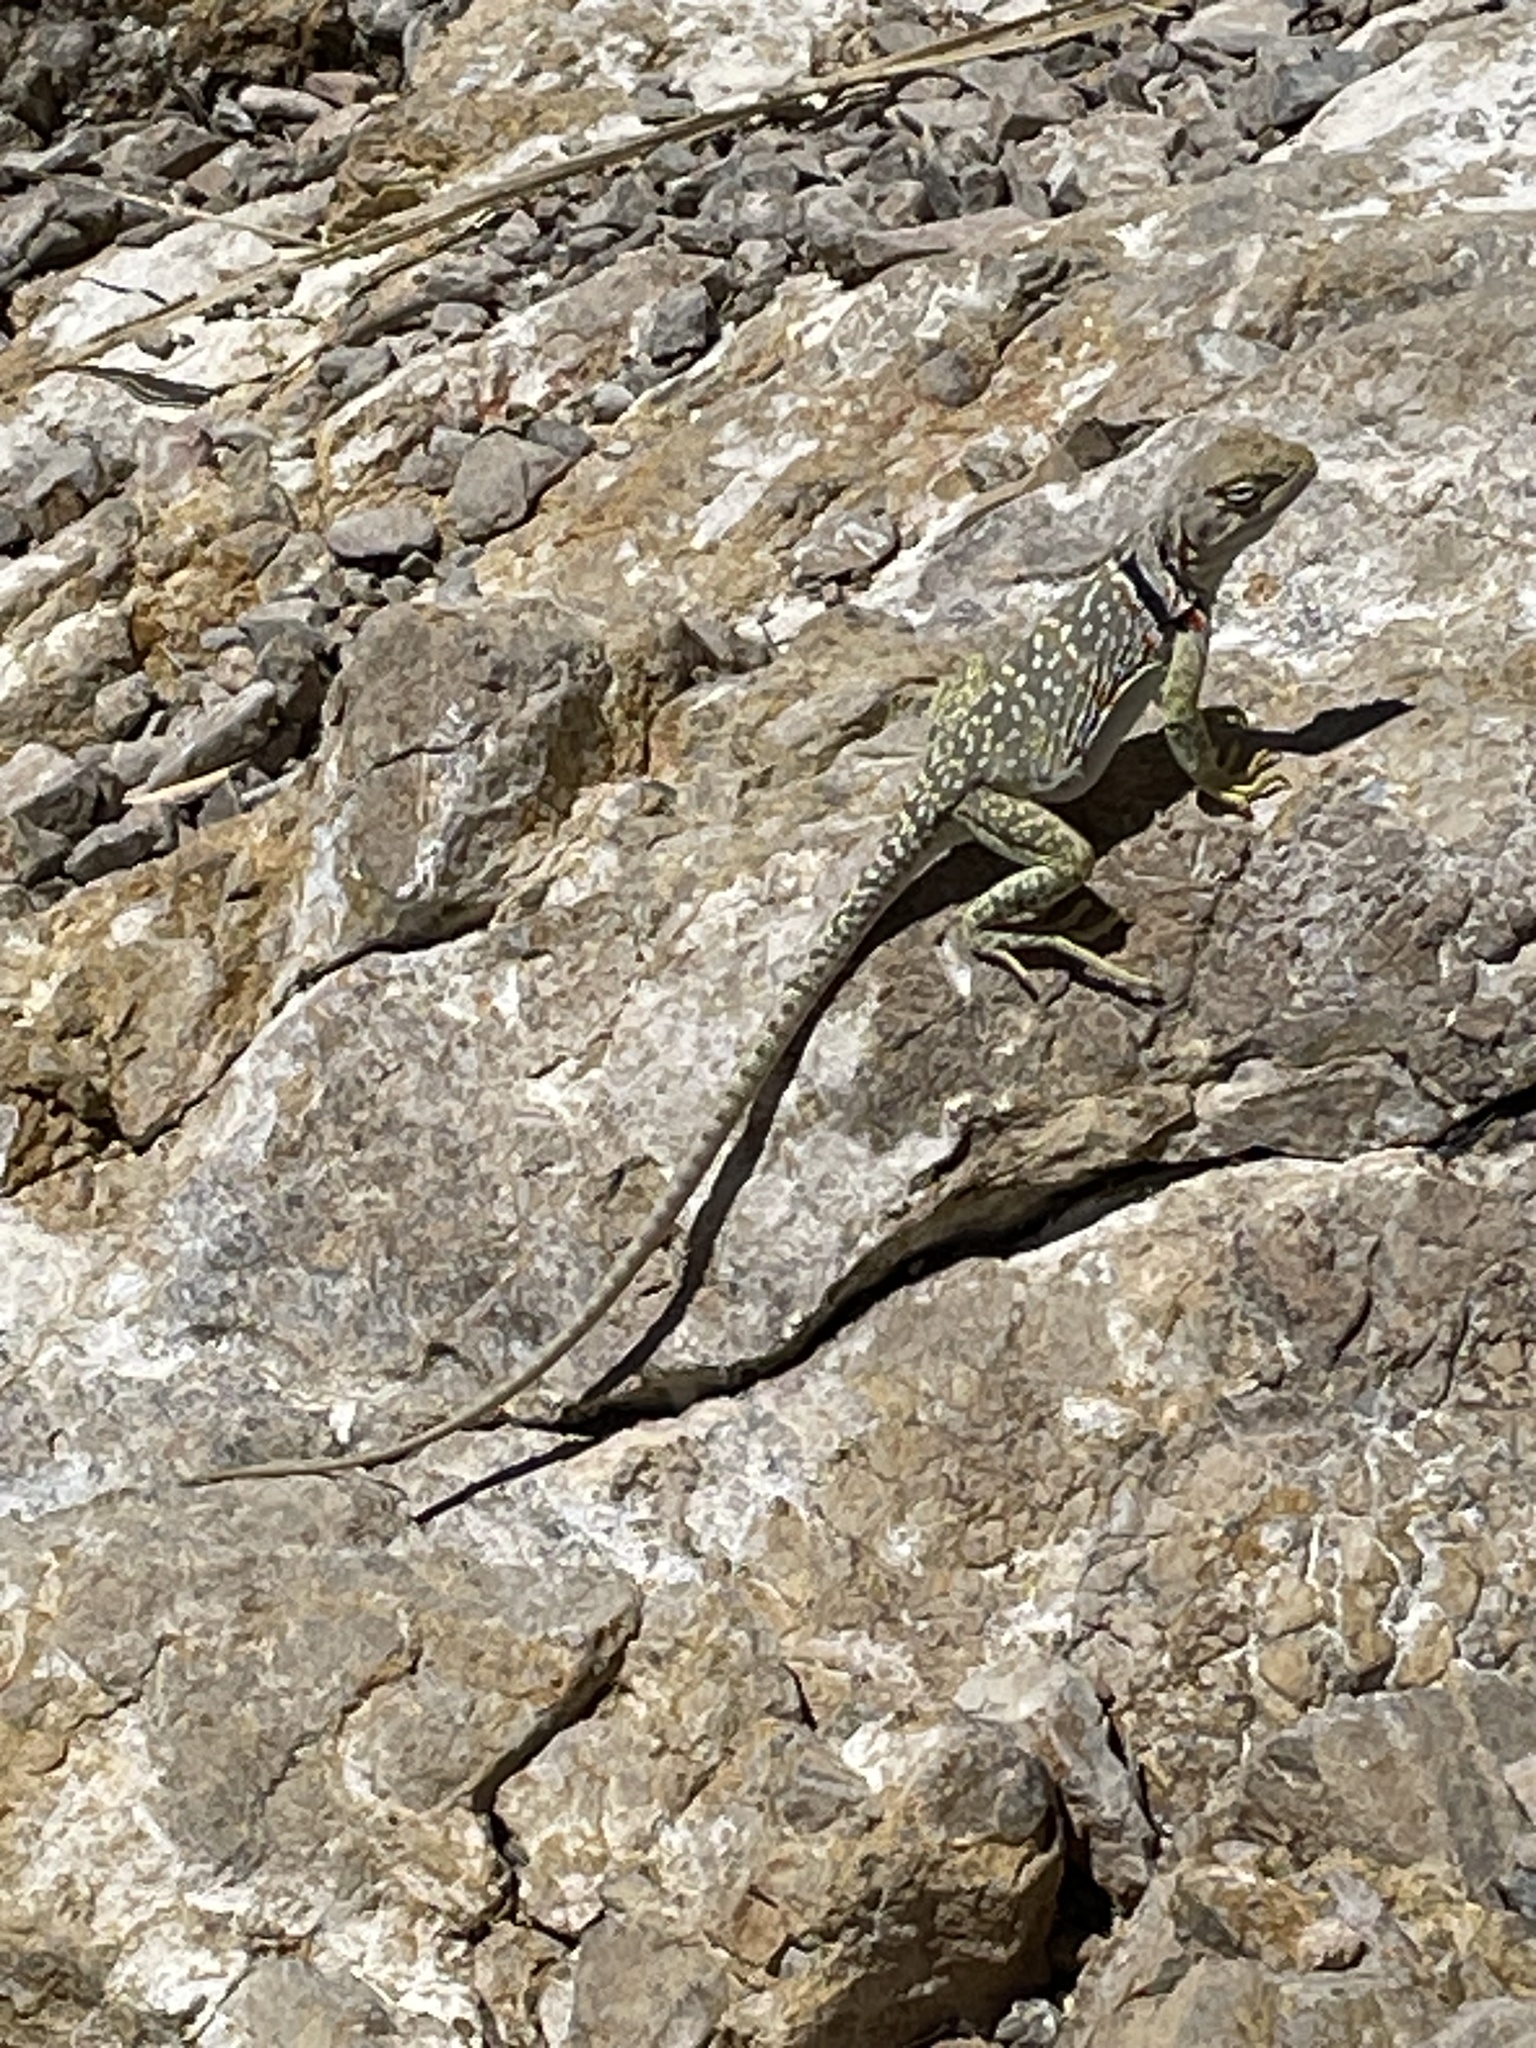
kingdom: Animalia
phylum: Chordata
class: Squamata
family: Crotaphytidae
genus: Crotaphytus
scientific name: Crotaphytus collaris
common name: Collared lizard
